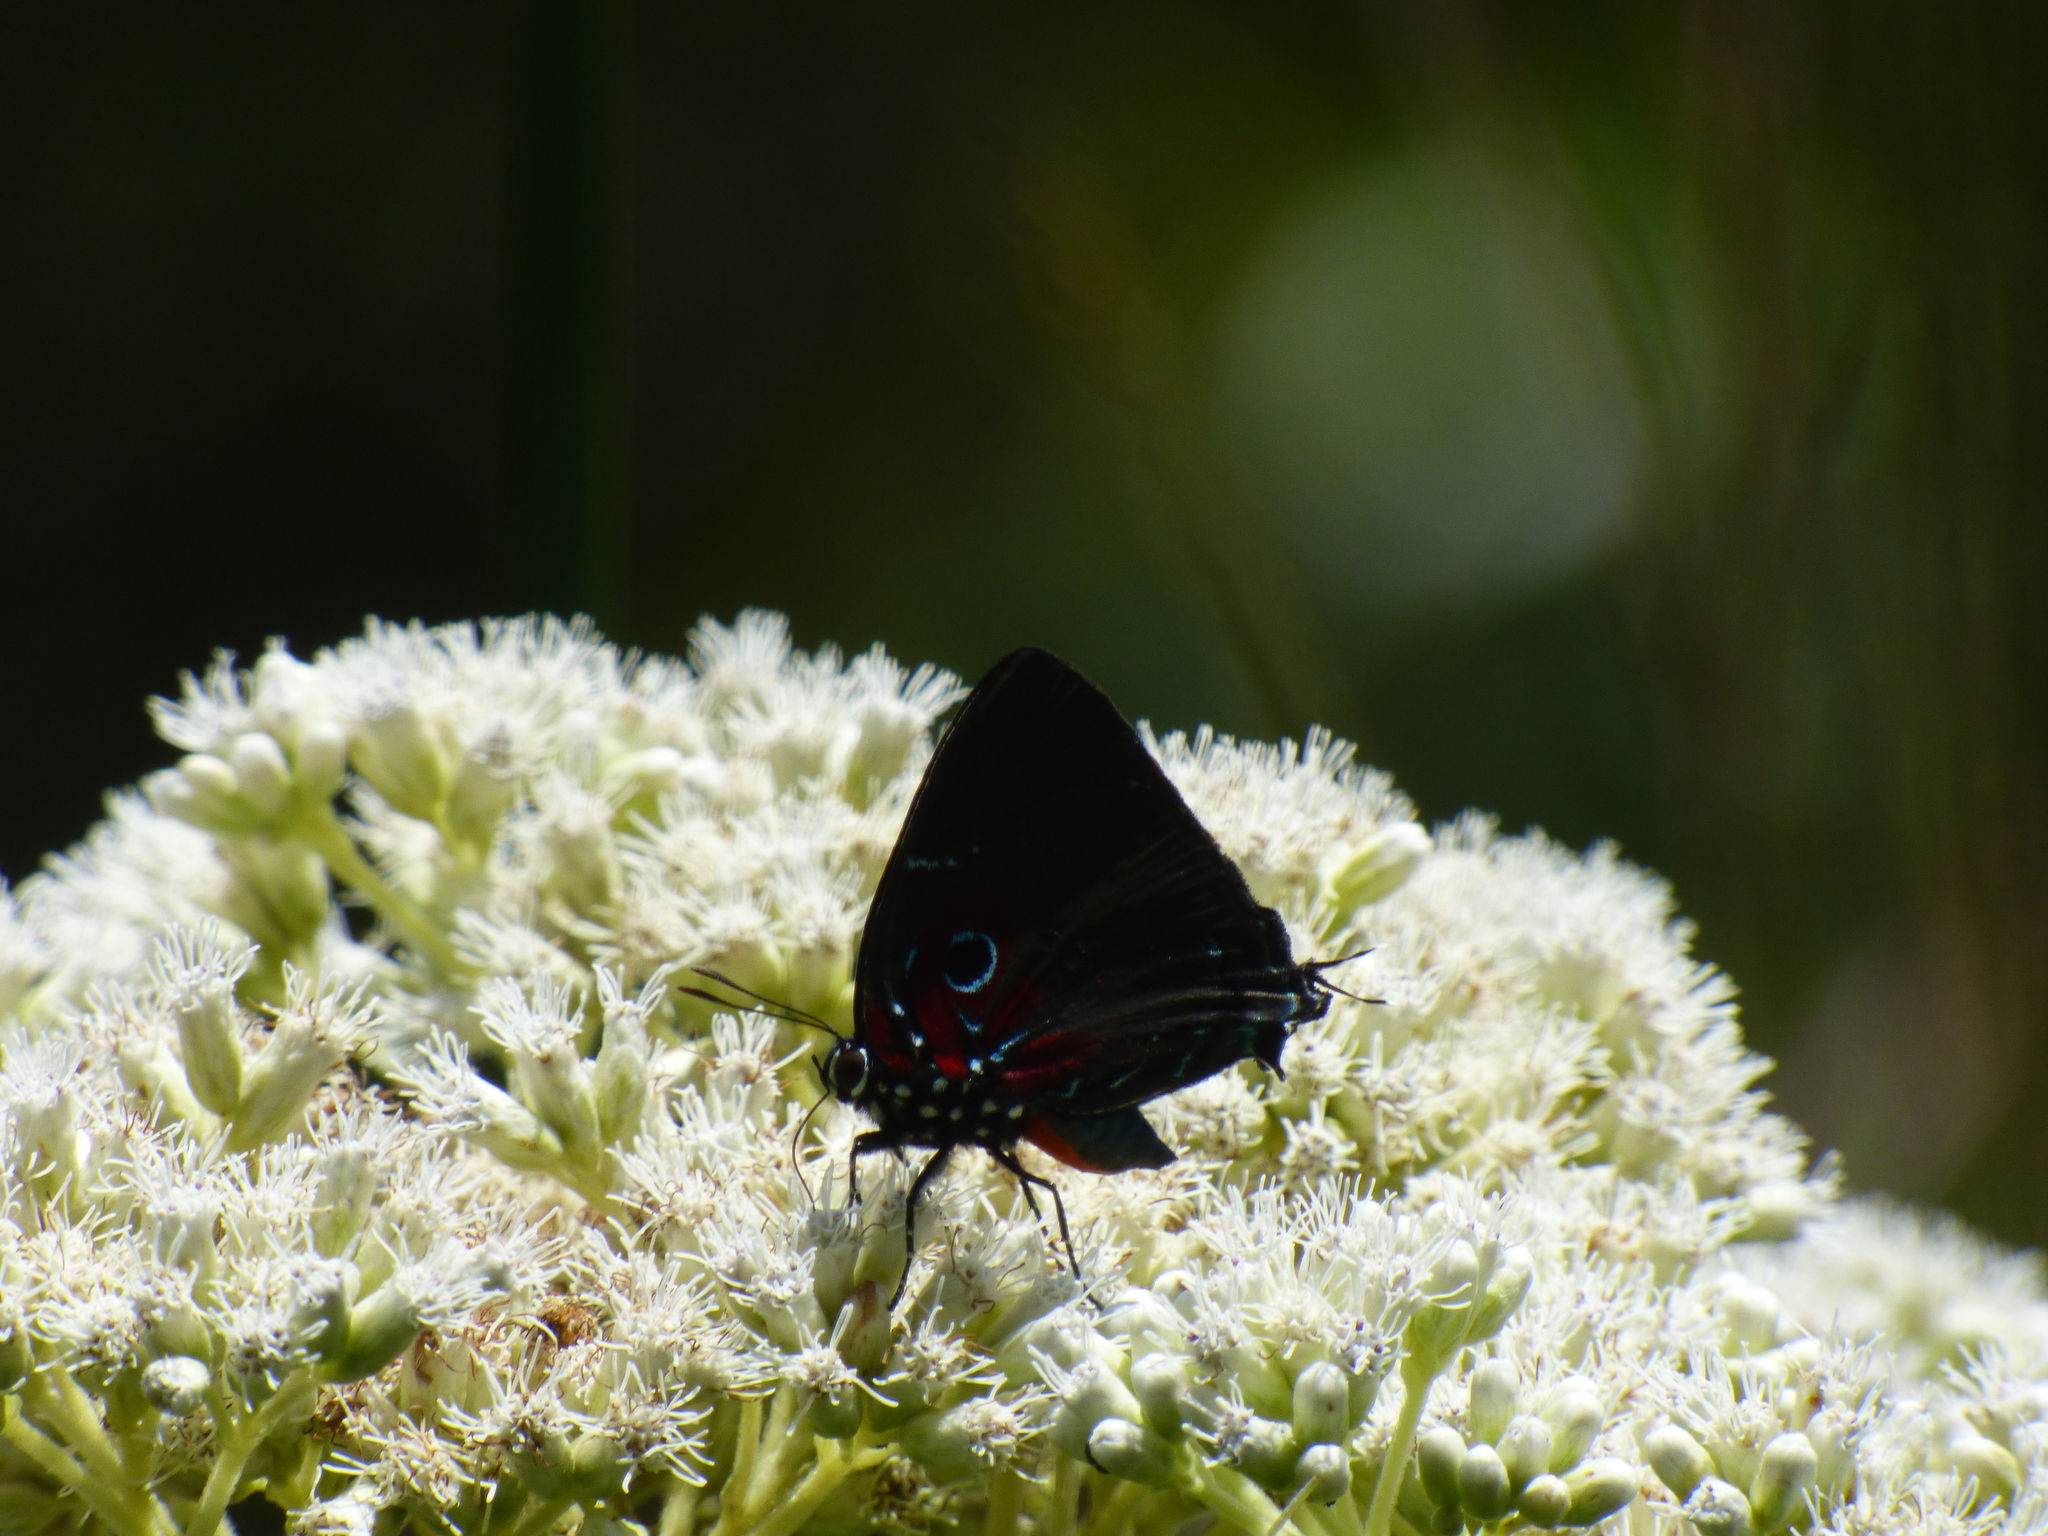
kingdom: Animalia
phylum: Arthropoda
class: Insecta
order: Lepidoptera
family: Lycaenidae
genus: Thecla
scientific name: Thecla inachus
